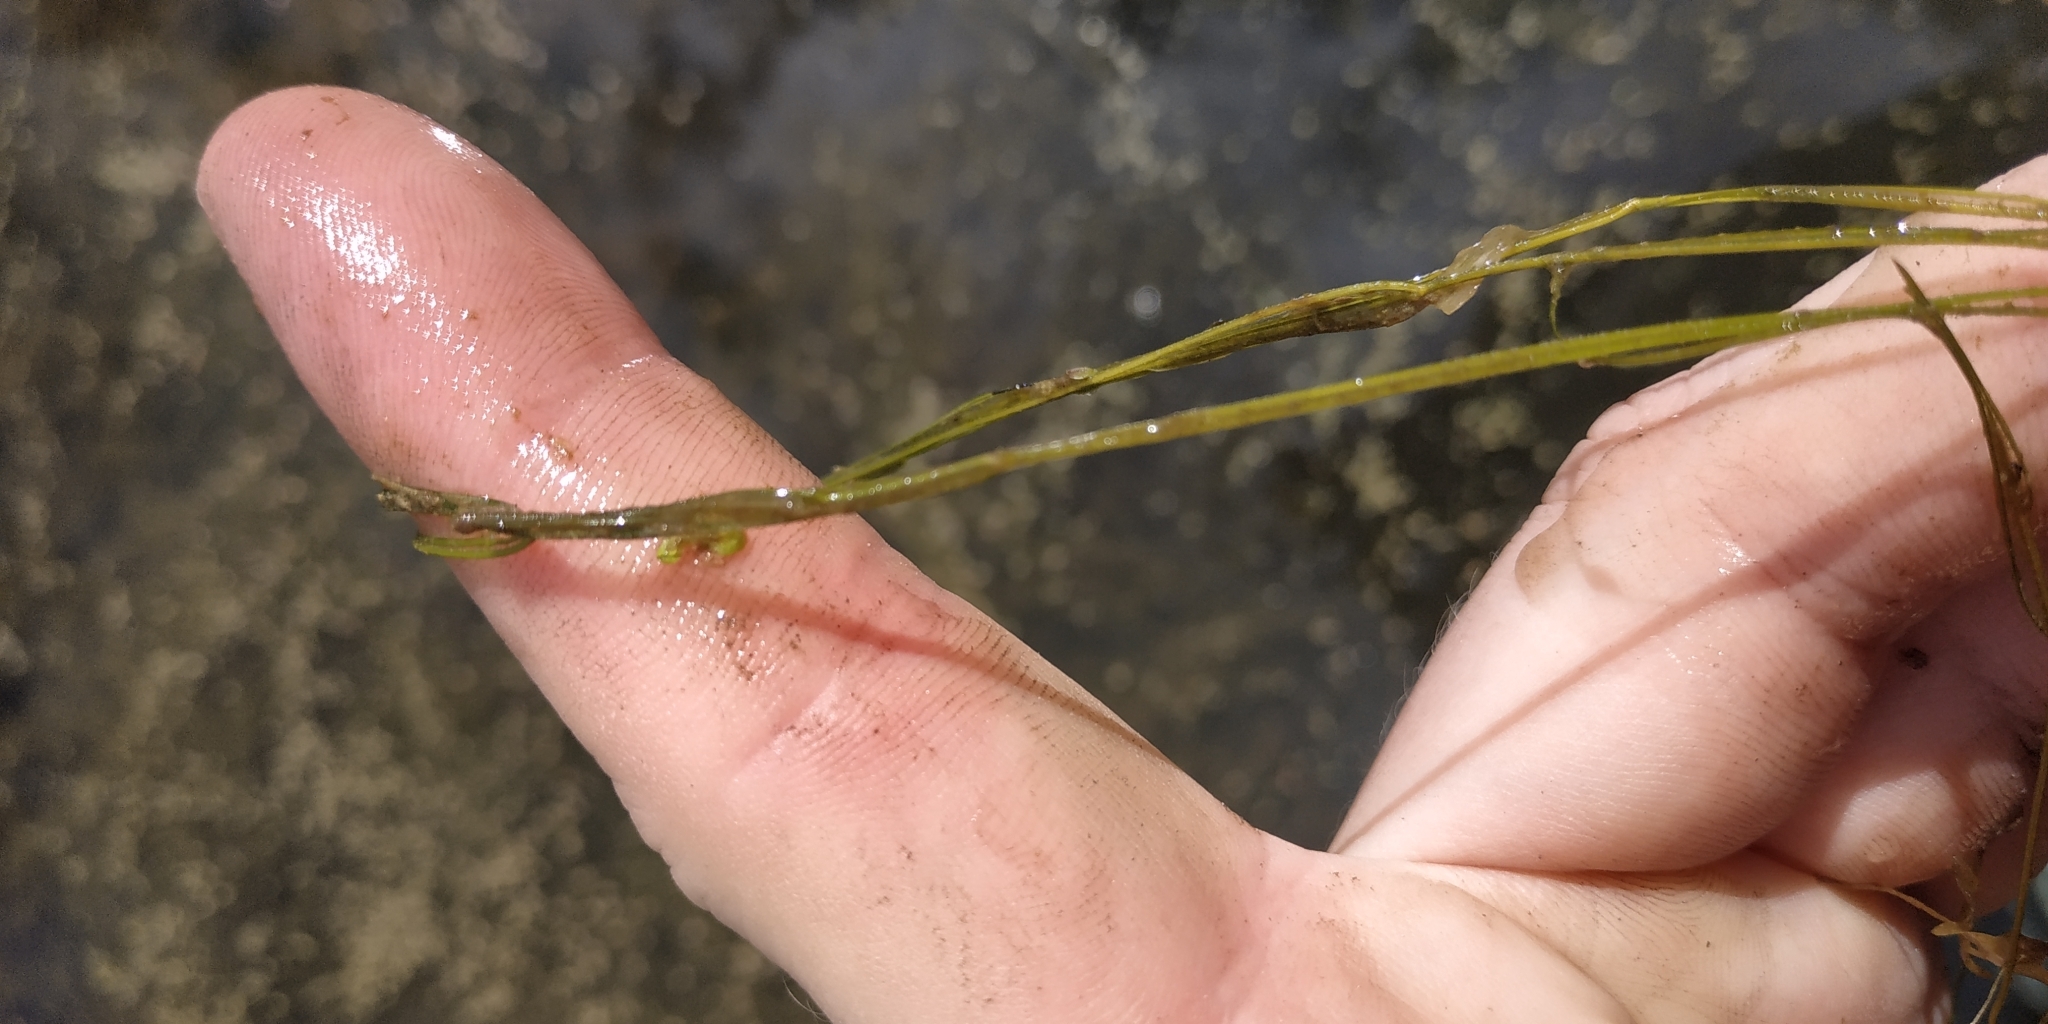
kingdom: Plantae
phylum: Tracheophyta
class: Liliopsida
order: Alismatales
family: Potamogetonaceae
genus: Potamogeton
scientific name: Potamogeton trichoides
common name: Hairlike pondweed
